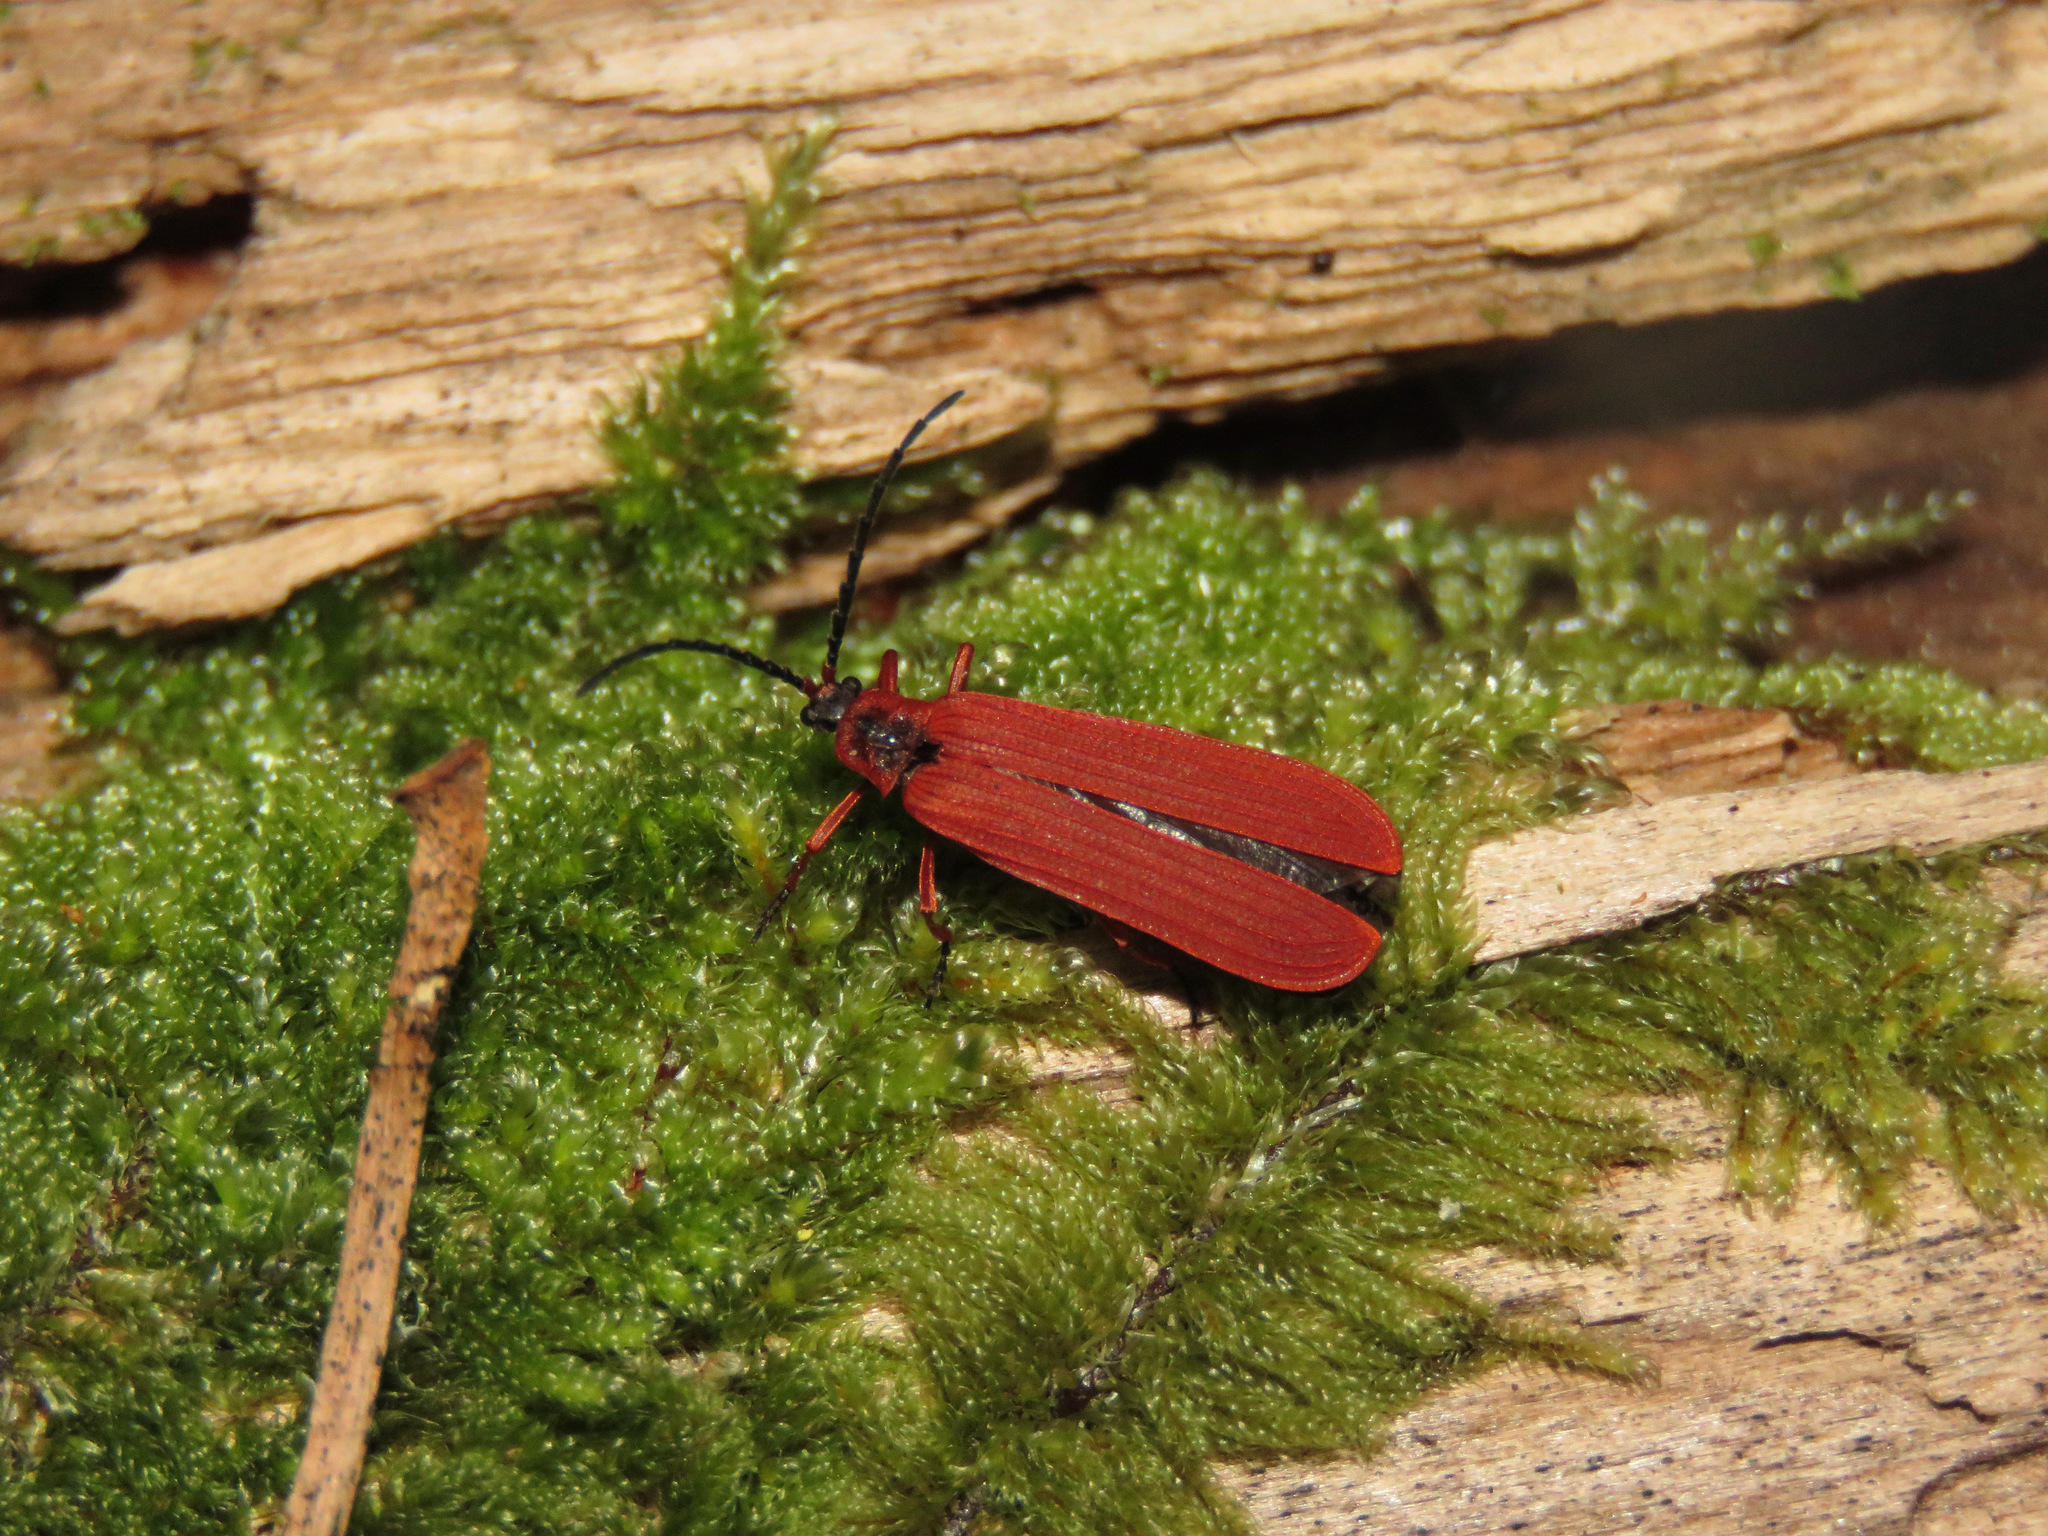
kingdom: Animalia
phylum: Arthropoda
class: Insecta
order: Coleoptera
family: Lycidae
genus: Dictyoptera
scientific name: Dictyoptera simplicipes
